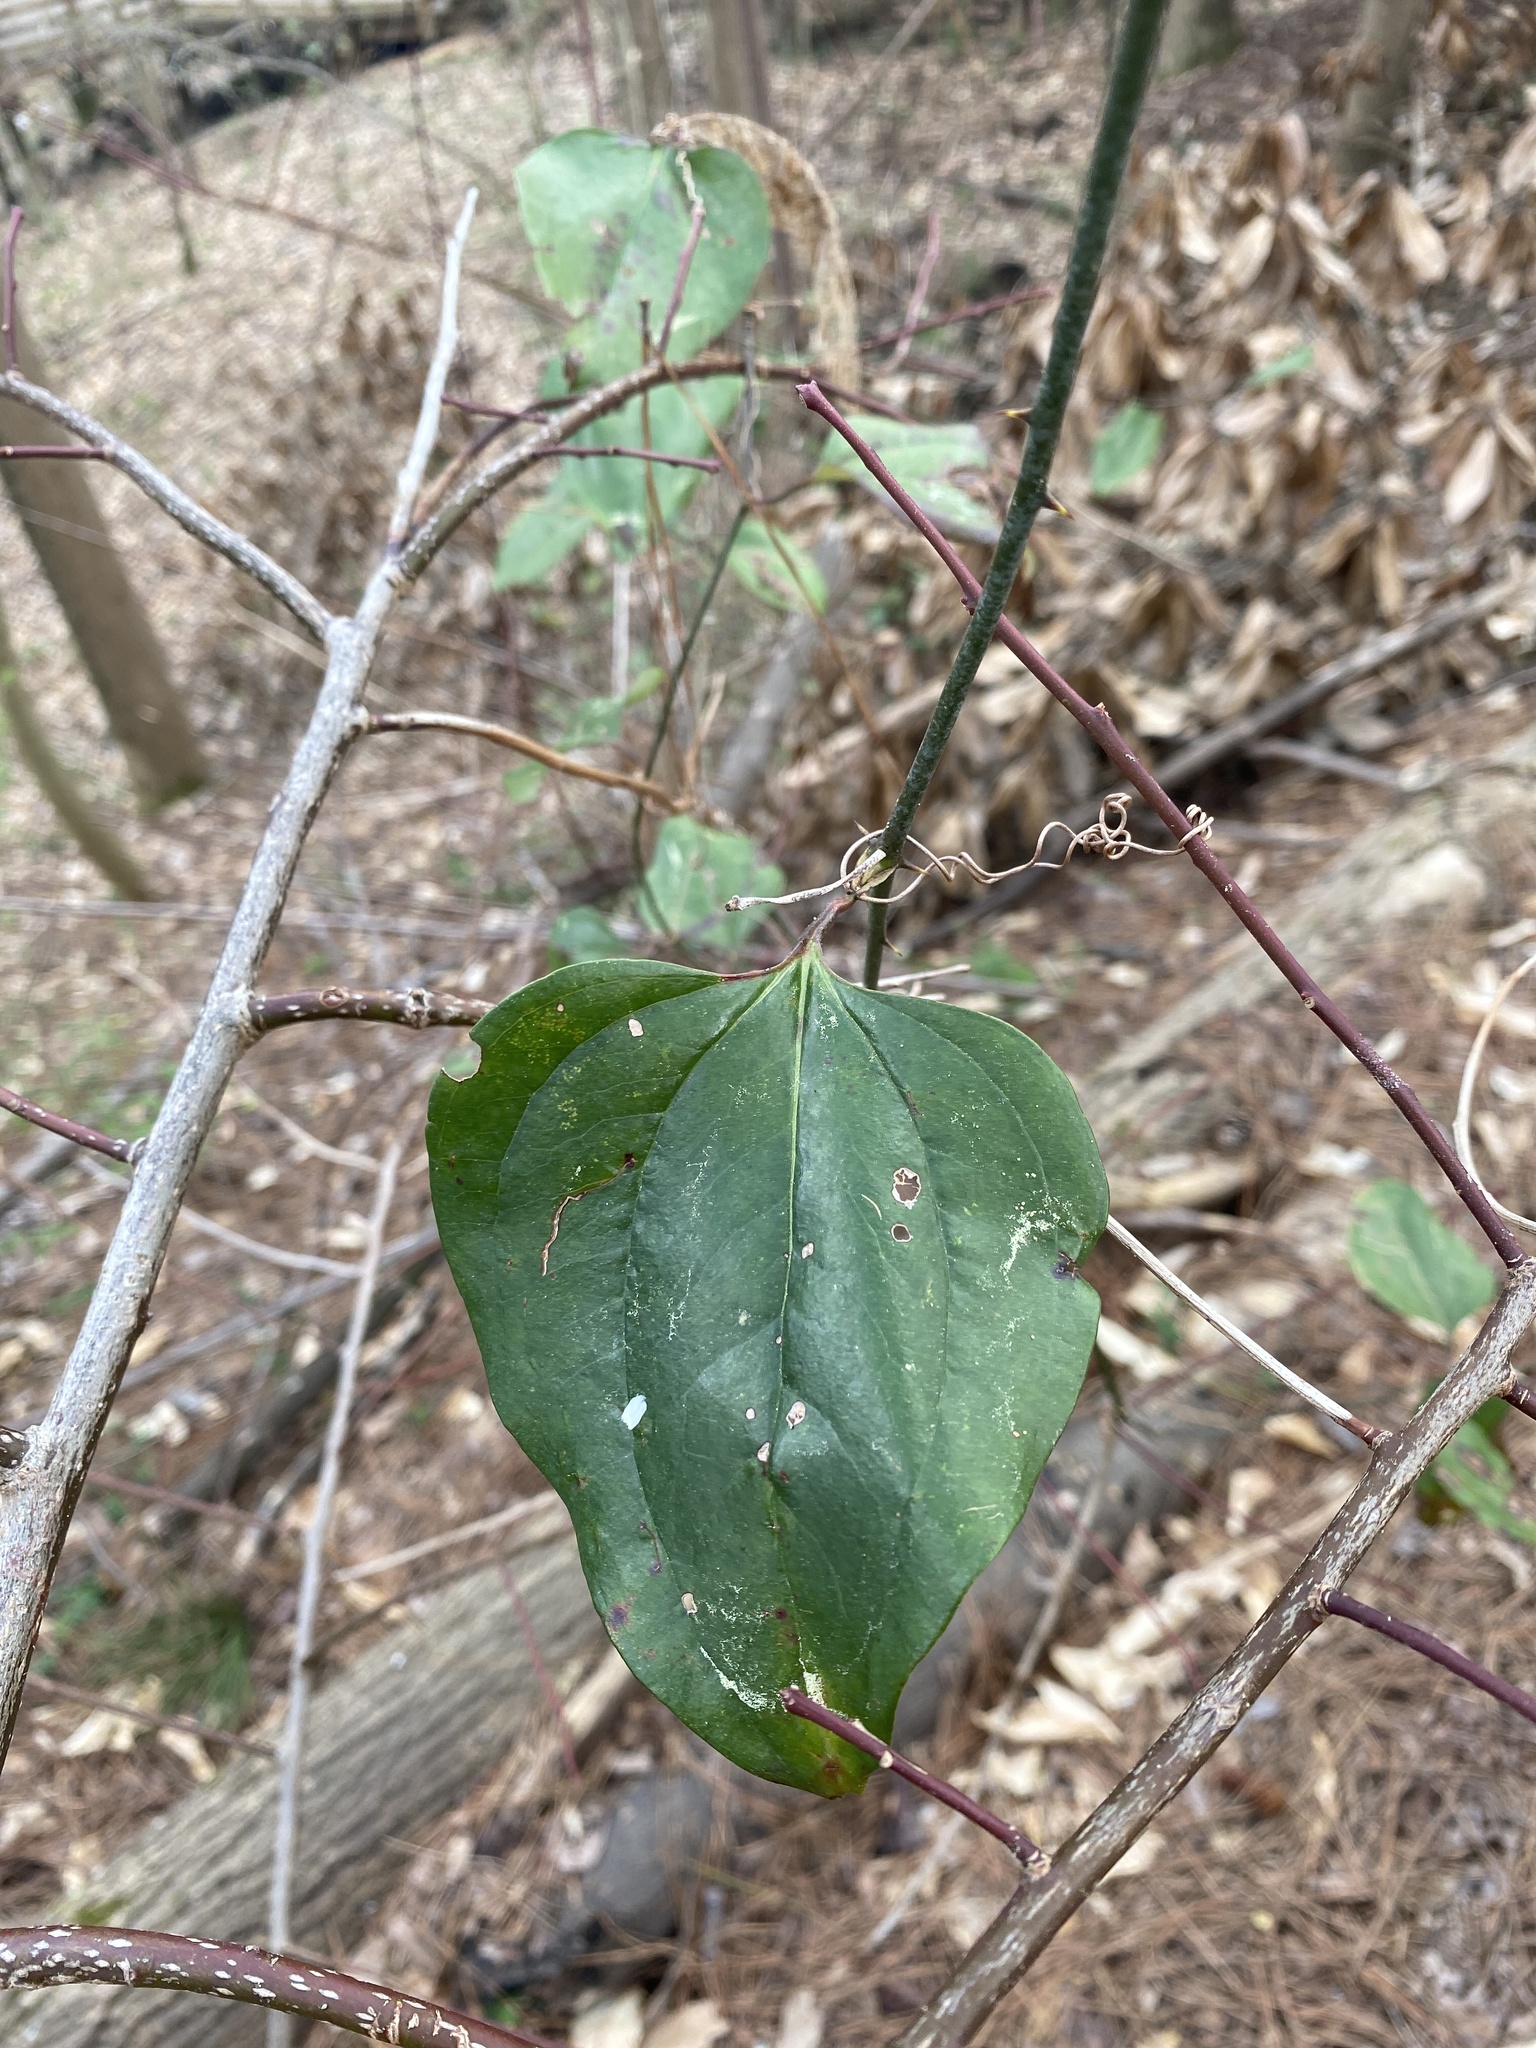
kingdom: Plantae
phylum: Tracheophyta
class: Liliopsida
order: Liliales
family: Smilacaceae
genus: Smilax
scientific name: Smilax glauca
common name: Cat greenbrier
